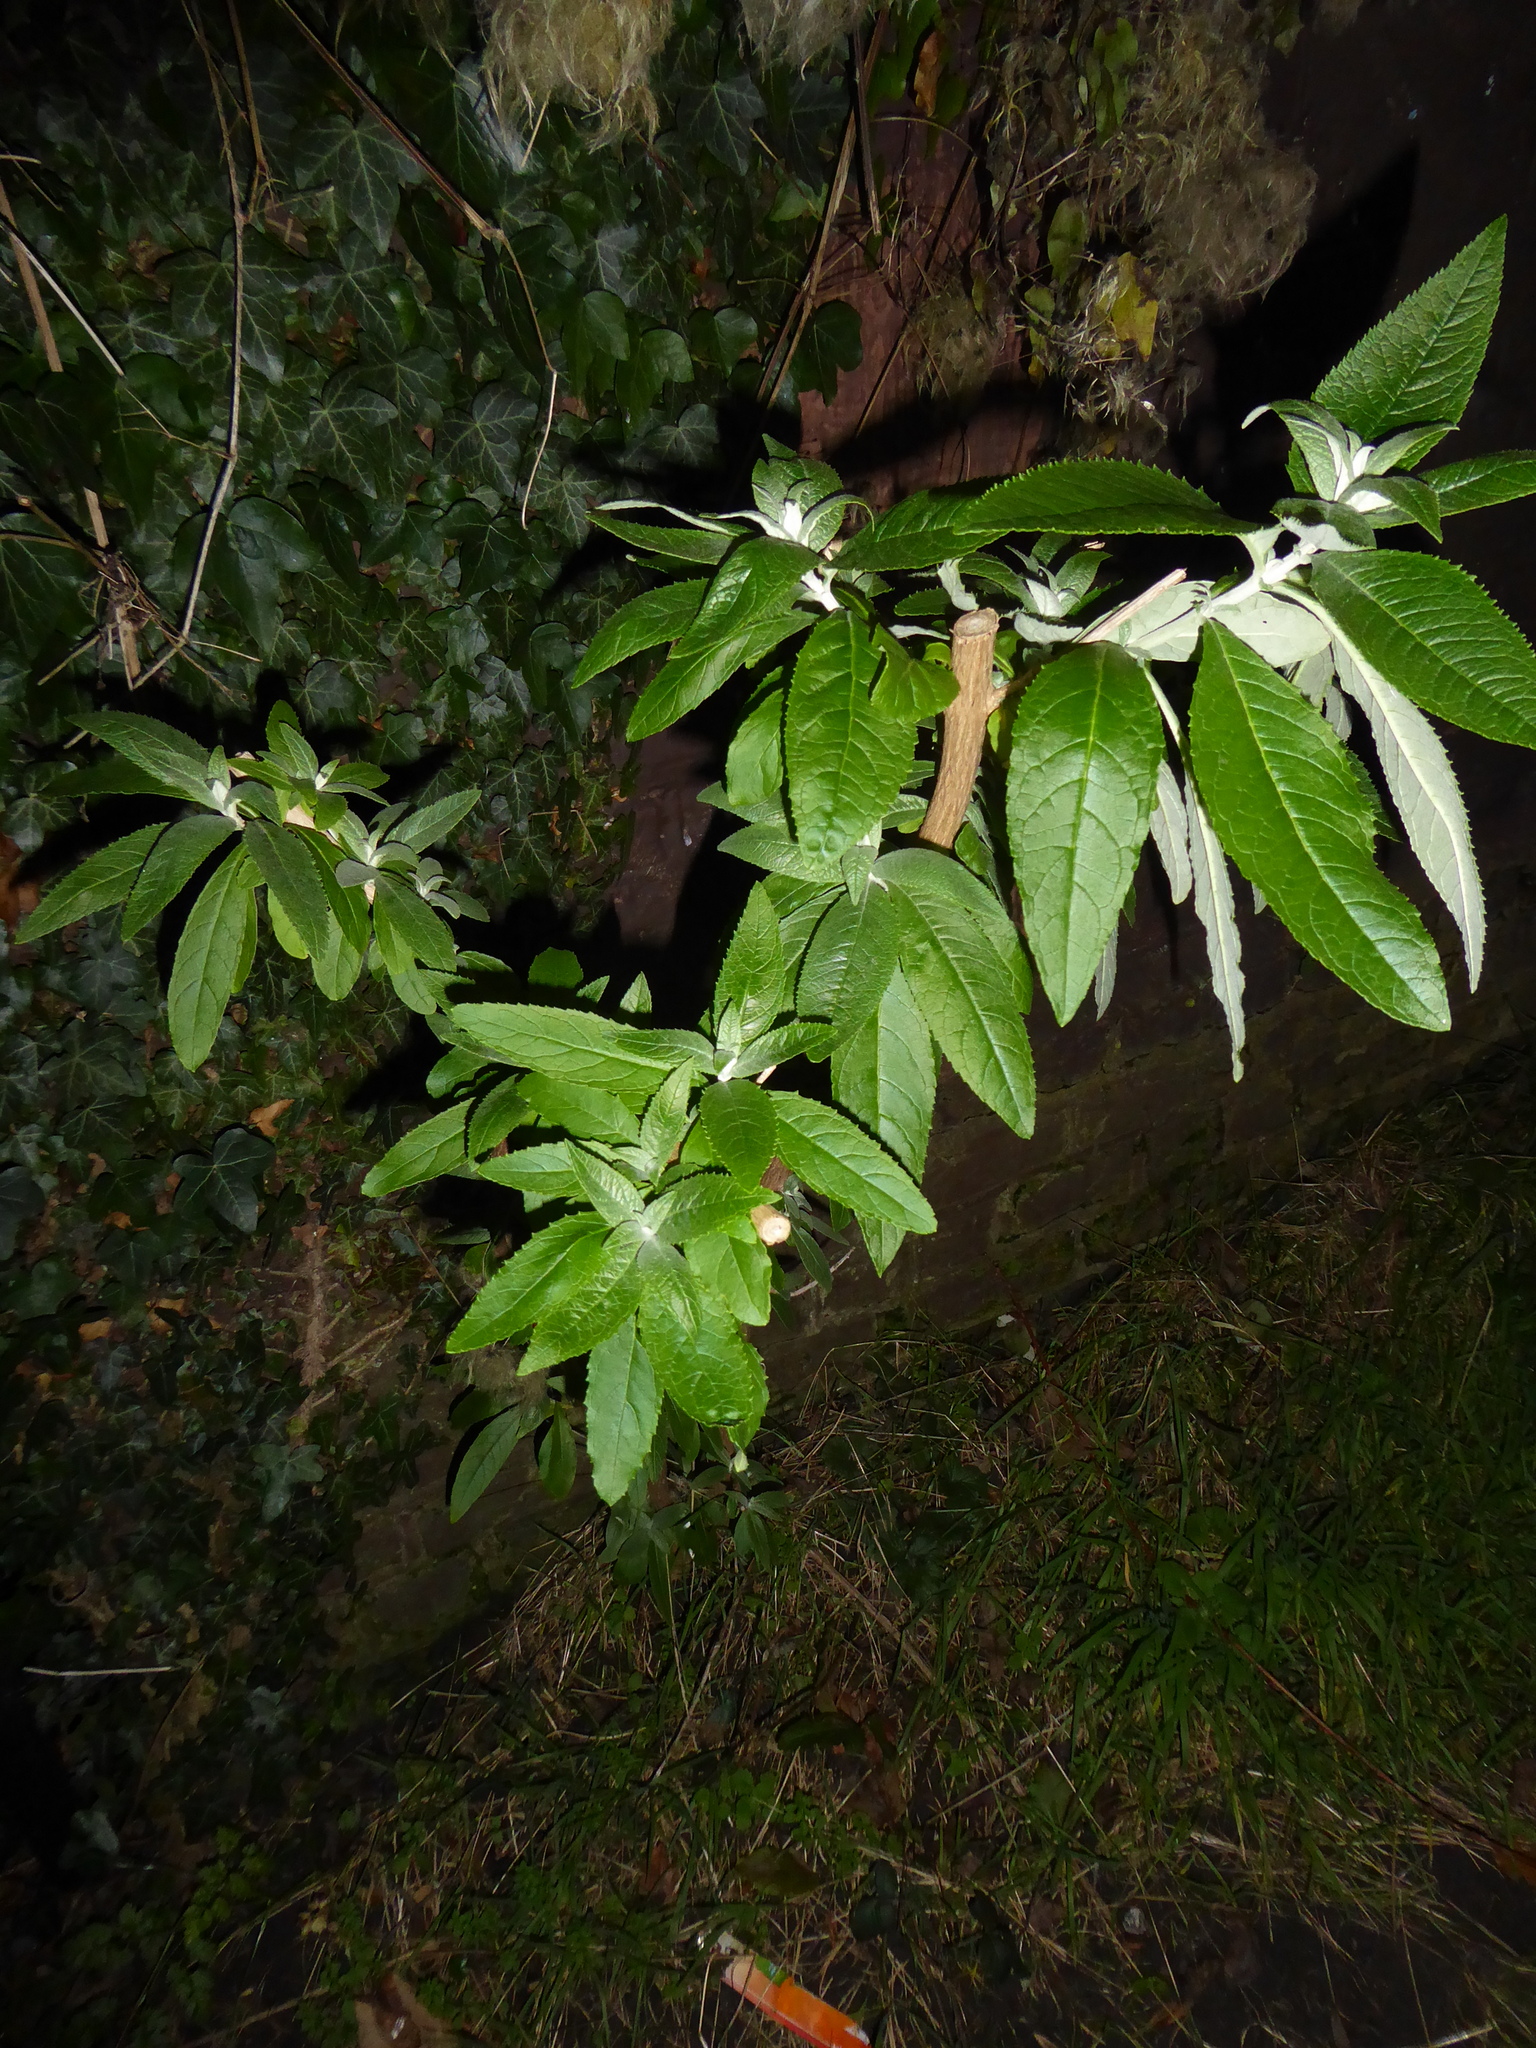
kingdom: Plantae
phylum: Tracheophyta
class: Magnoliopsida
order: Lamiales
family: Scrophulariaceae
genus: Buddleja
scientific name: Buddleja davidii
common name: Butterfly-bush
